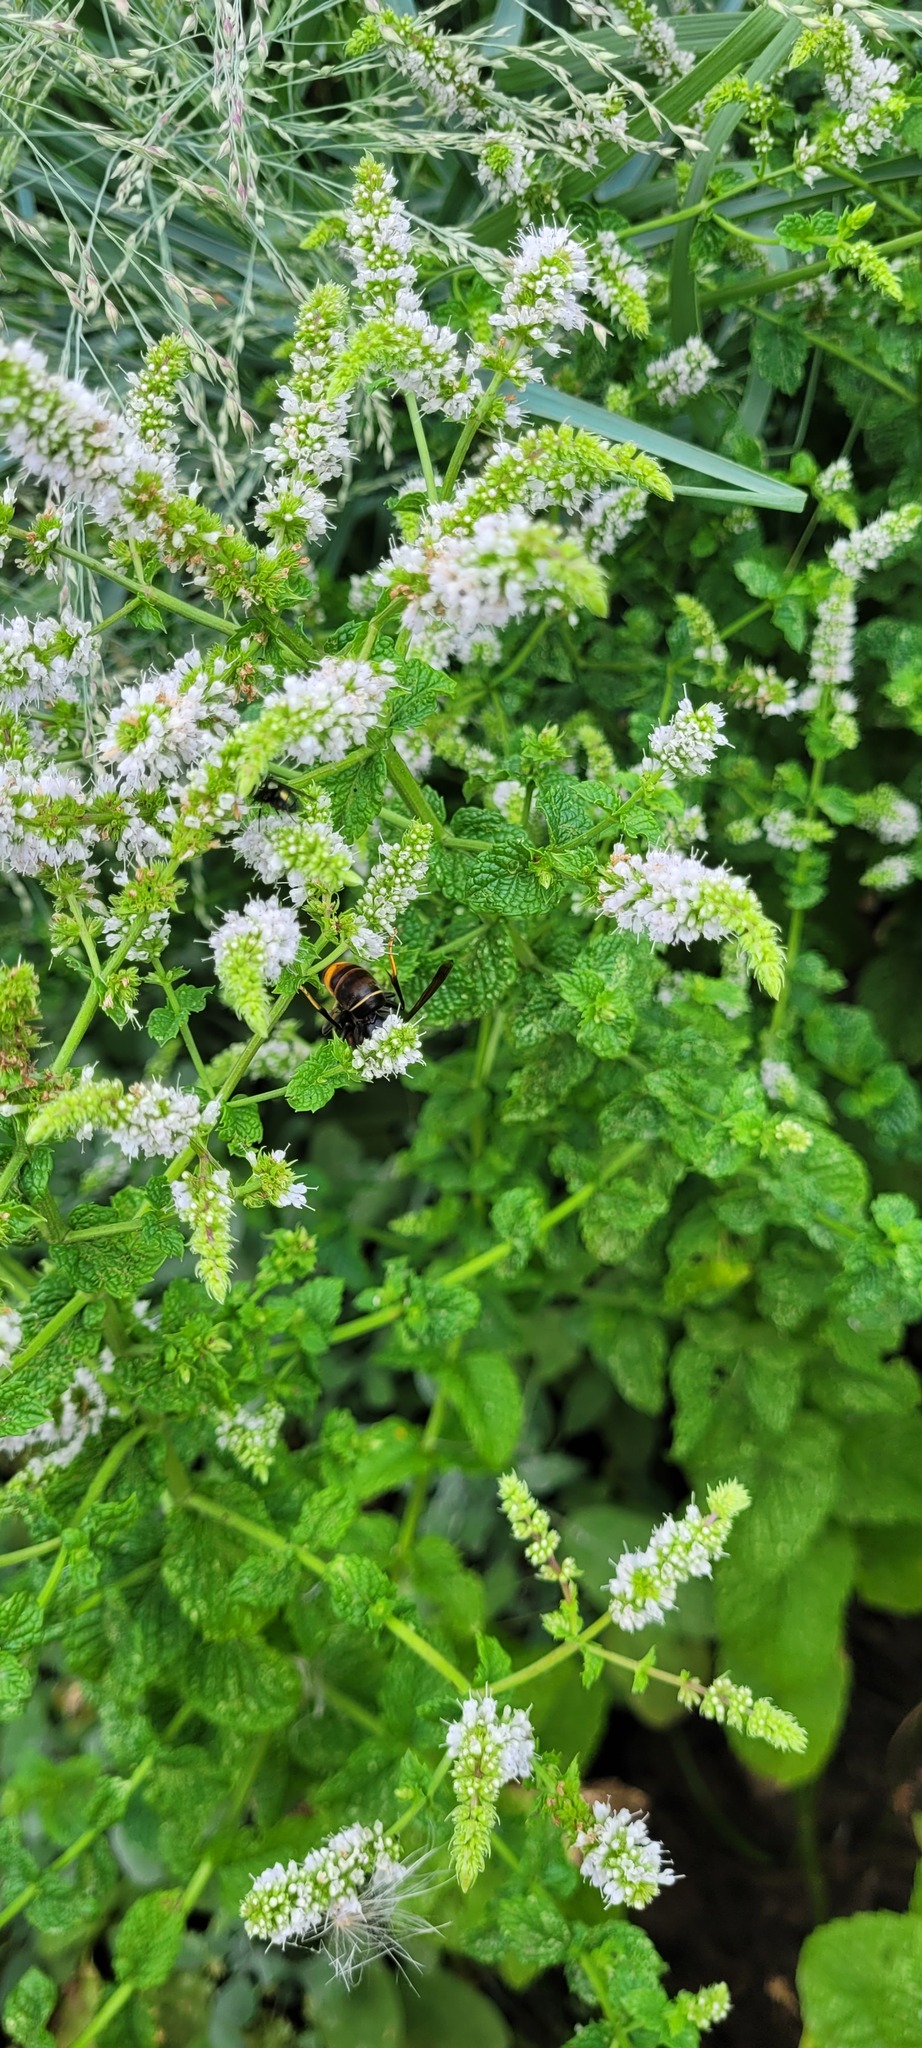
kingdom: Animalia
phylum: Arthropoda
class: Insecta
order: Hymenoptera
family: Vespidae
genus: Vespa
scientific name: Vespa velutina
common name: Asian hornet
